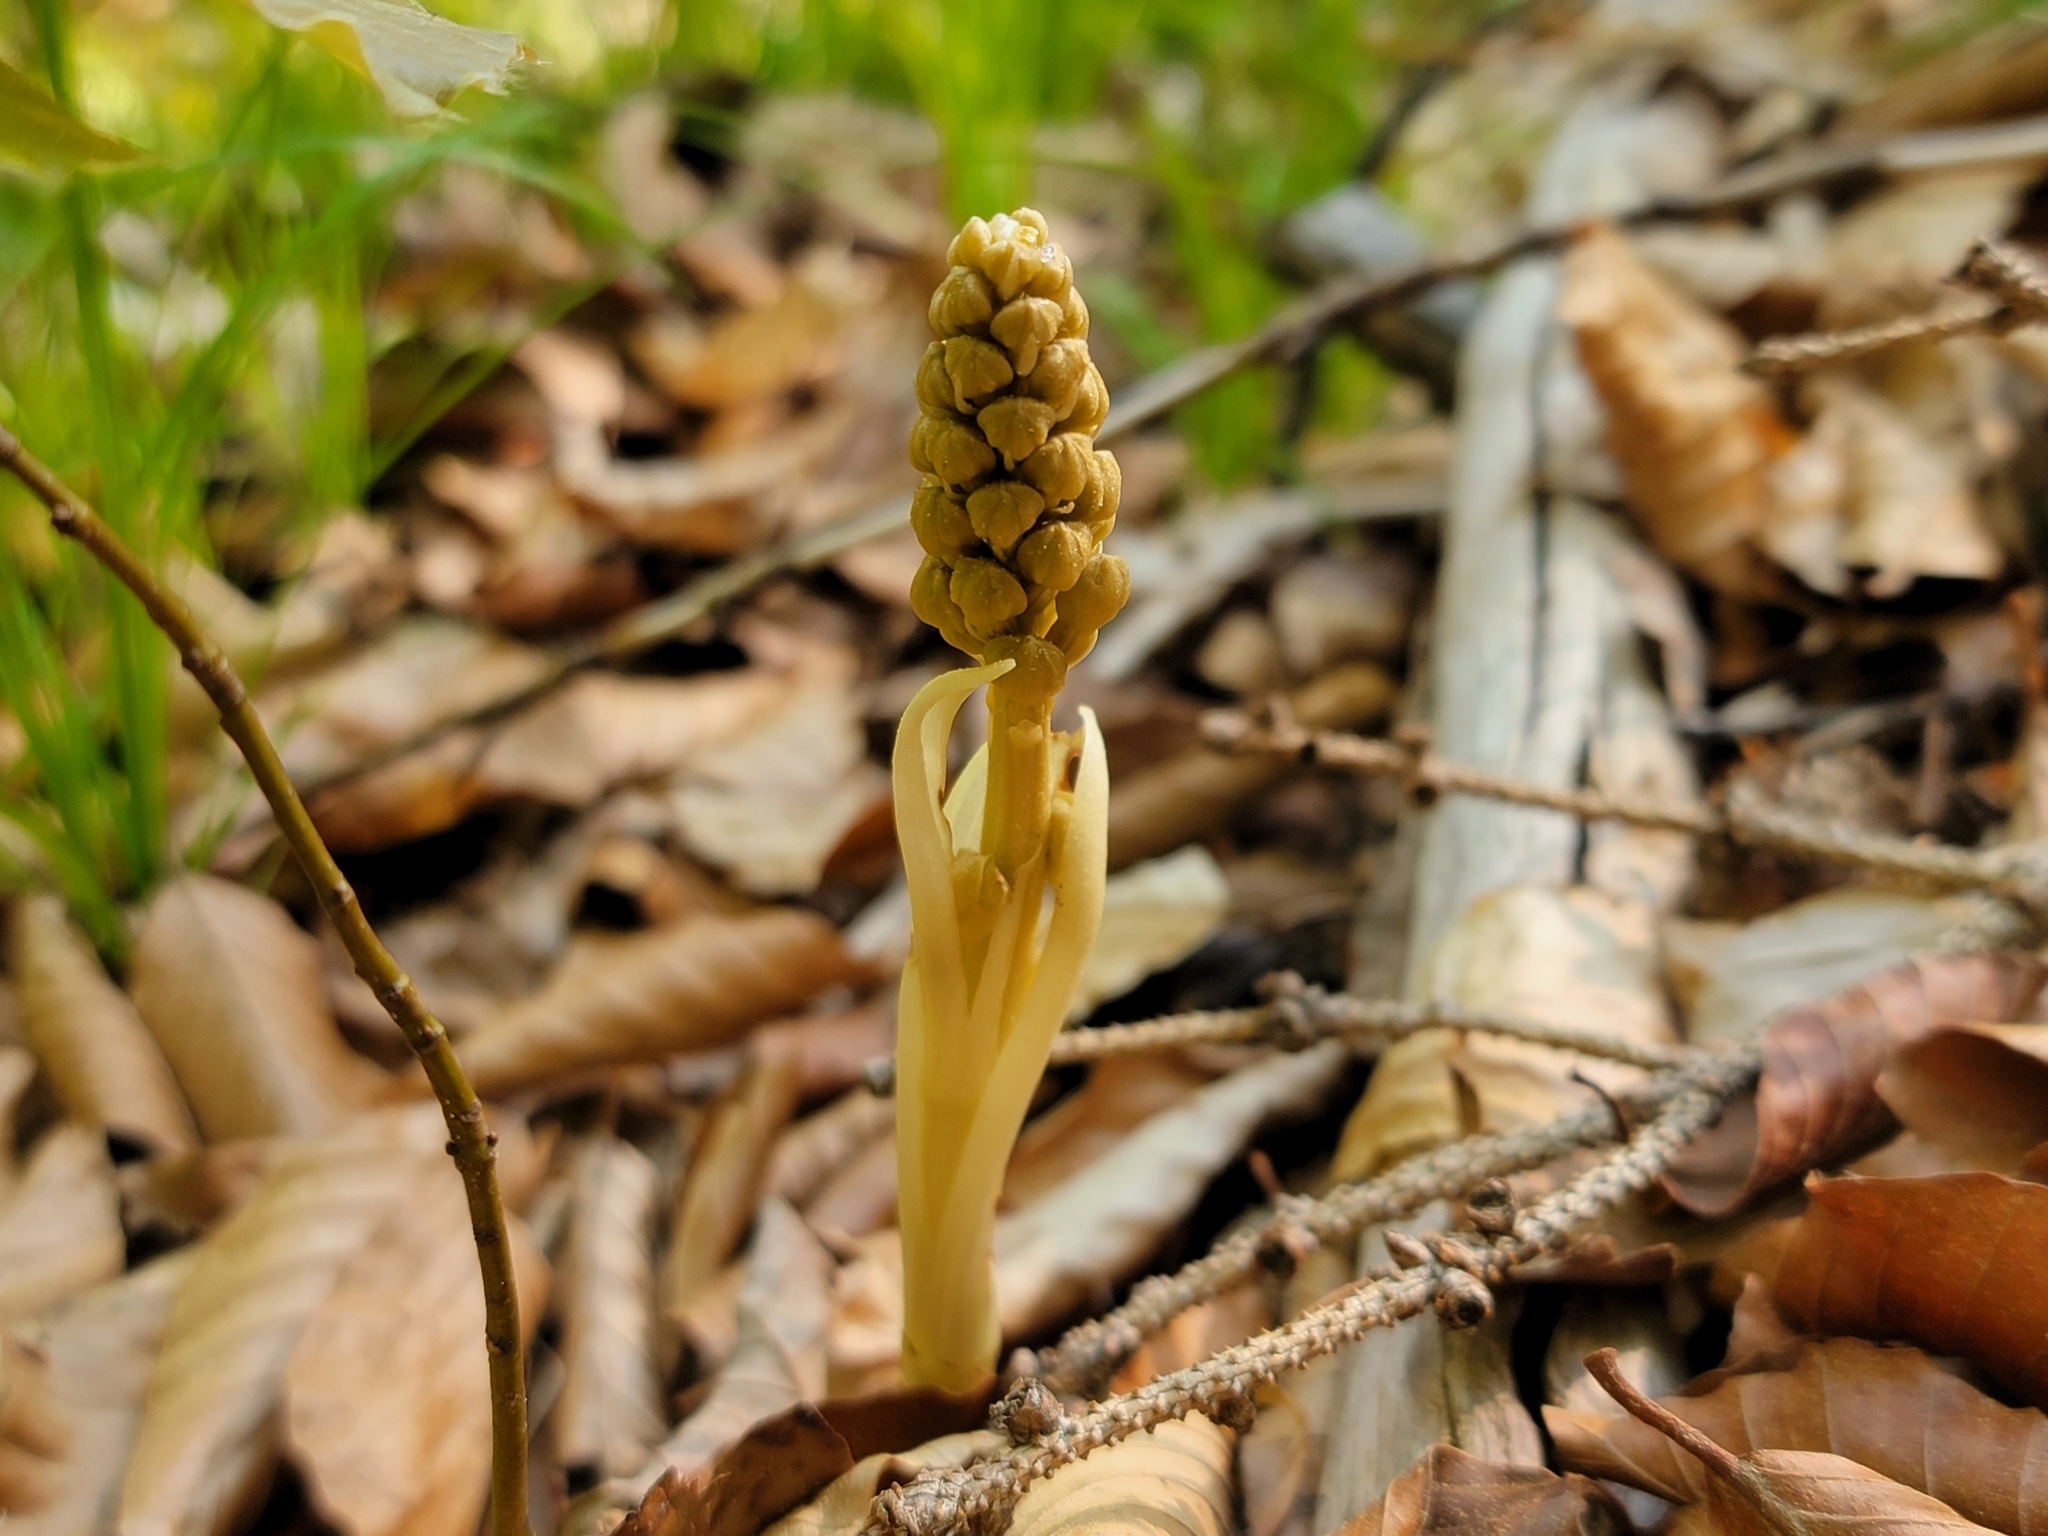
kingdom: Plantae
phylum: Tracheophyta
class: Liliopsida
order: Asparagales
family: Orchidaceae
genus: Neottia
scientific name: Neottia nidus-avis
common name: Bird's-nest orchid
